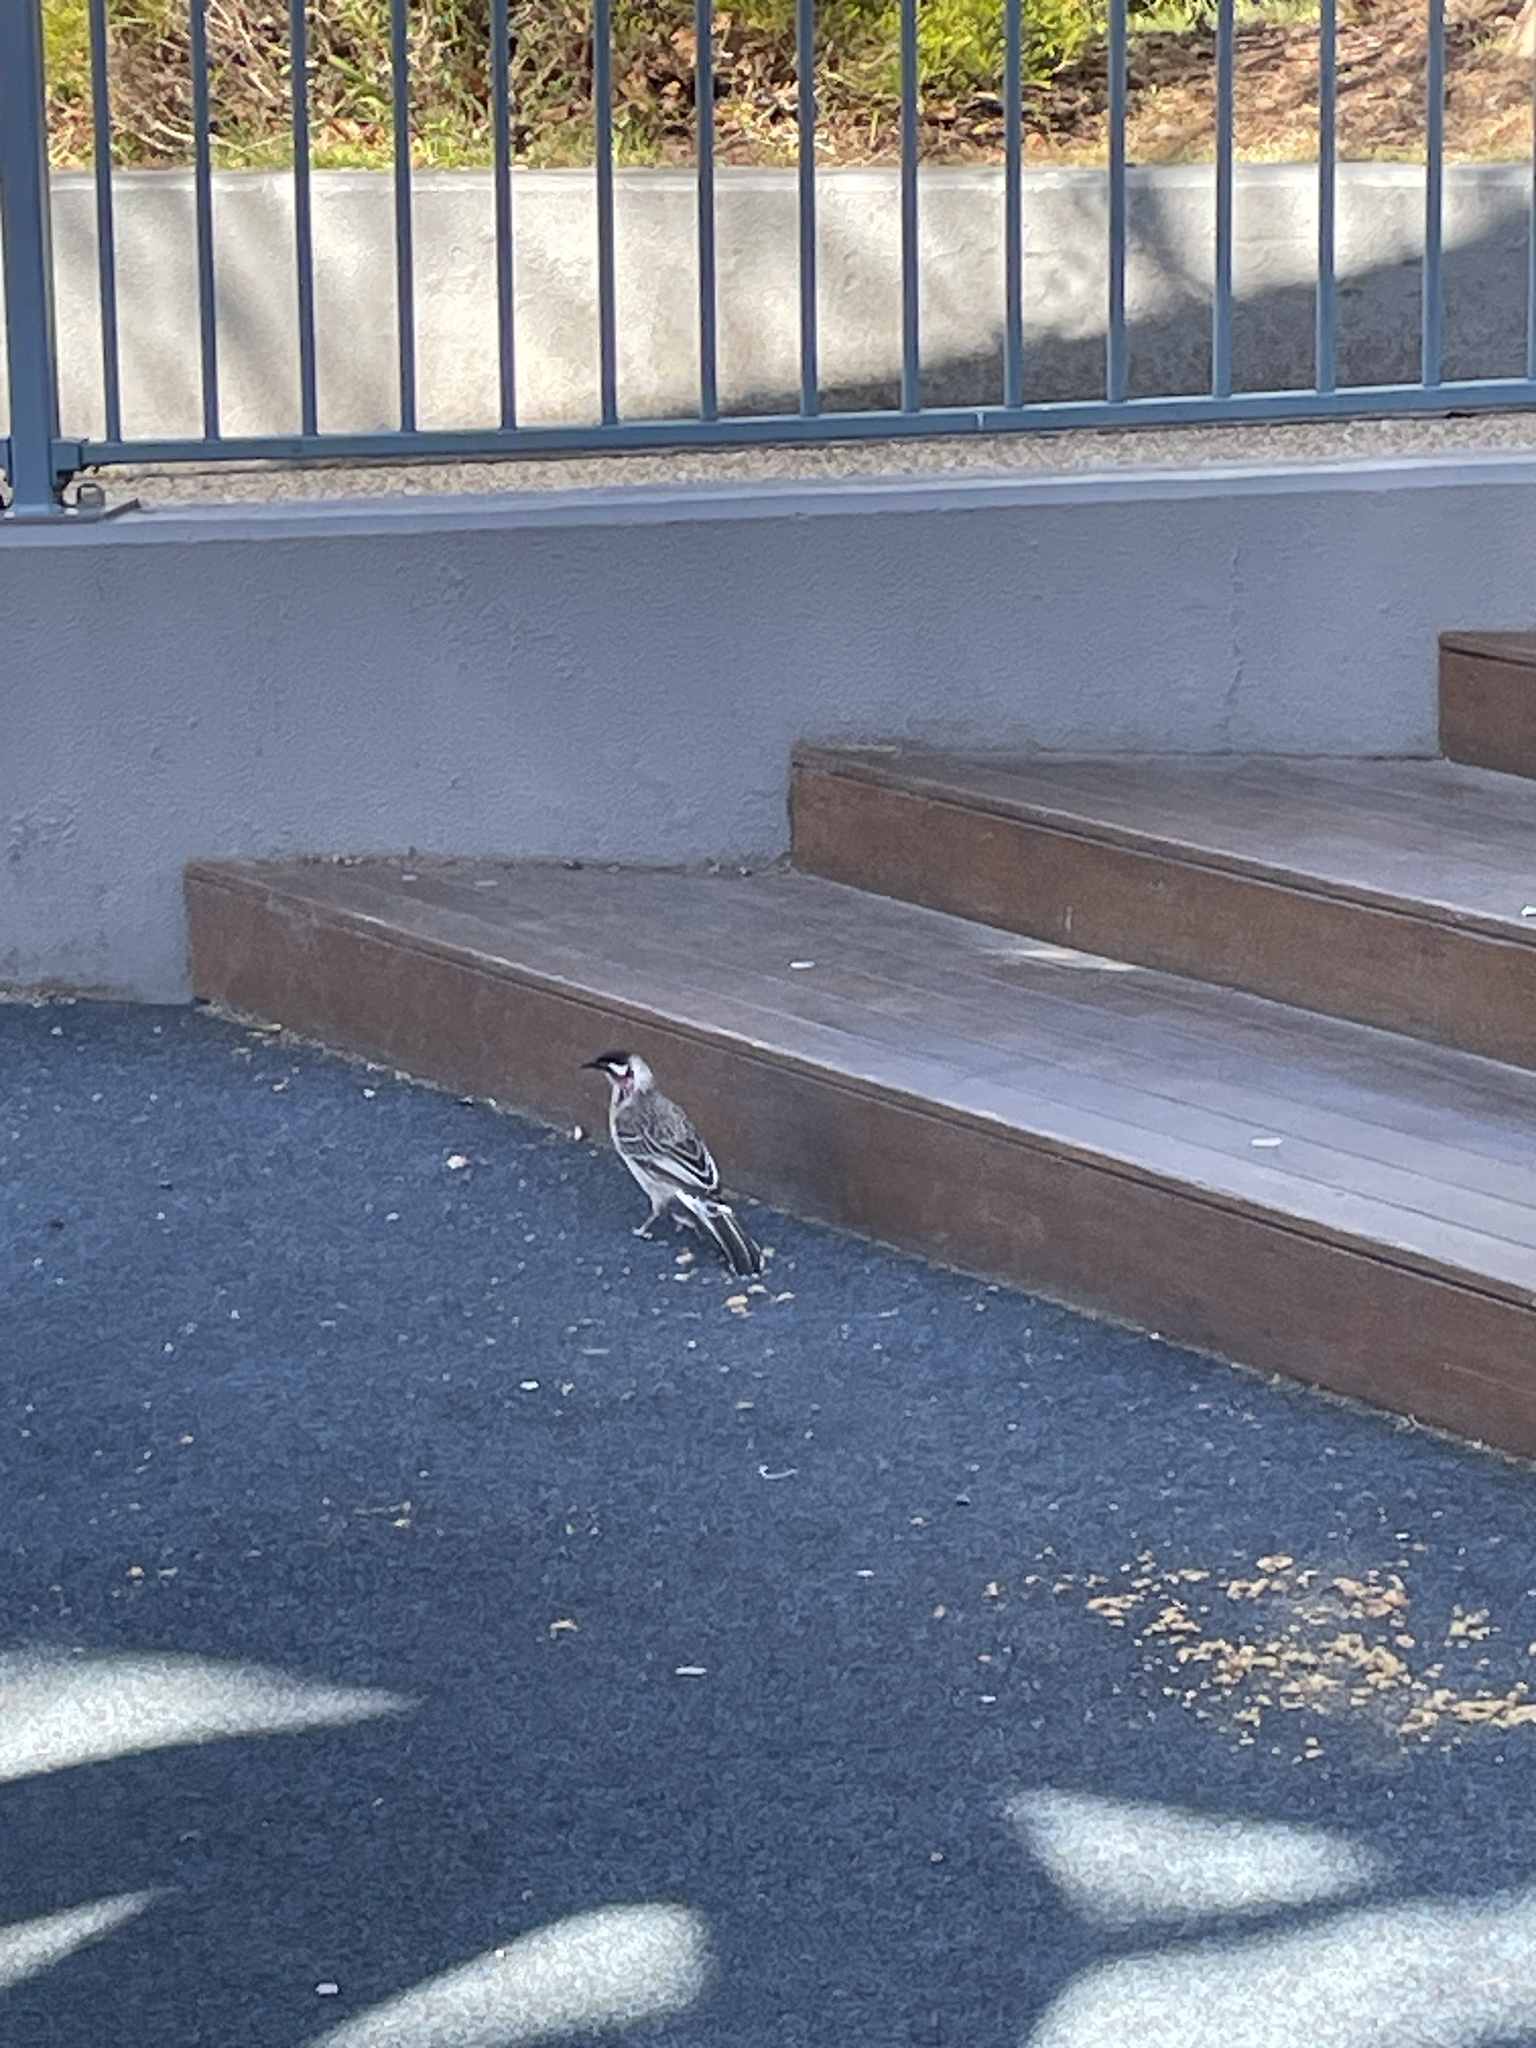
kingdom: Animalia
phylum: Chordata
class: Aves
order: Passeriformes
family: Meliphagidae
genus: Anthochaera
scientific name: Anthochaera carunculata
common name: Red wattlebird
